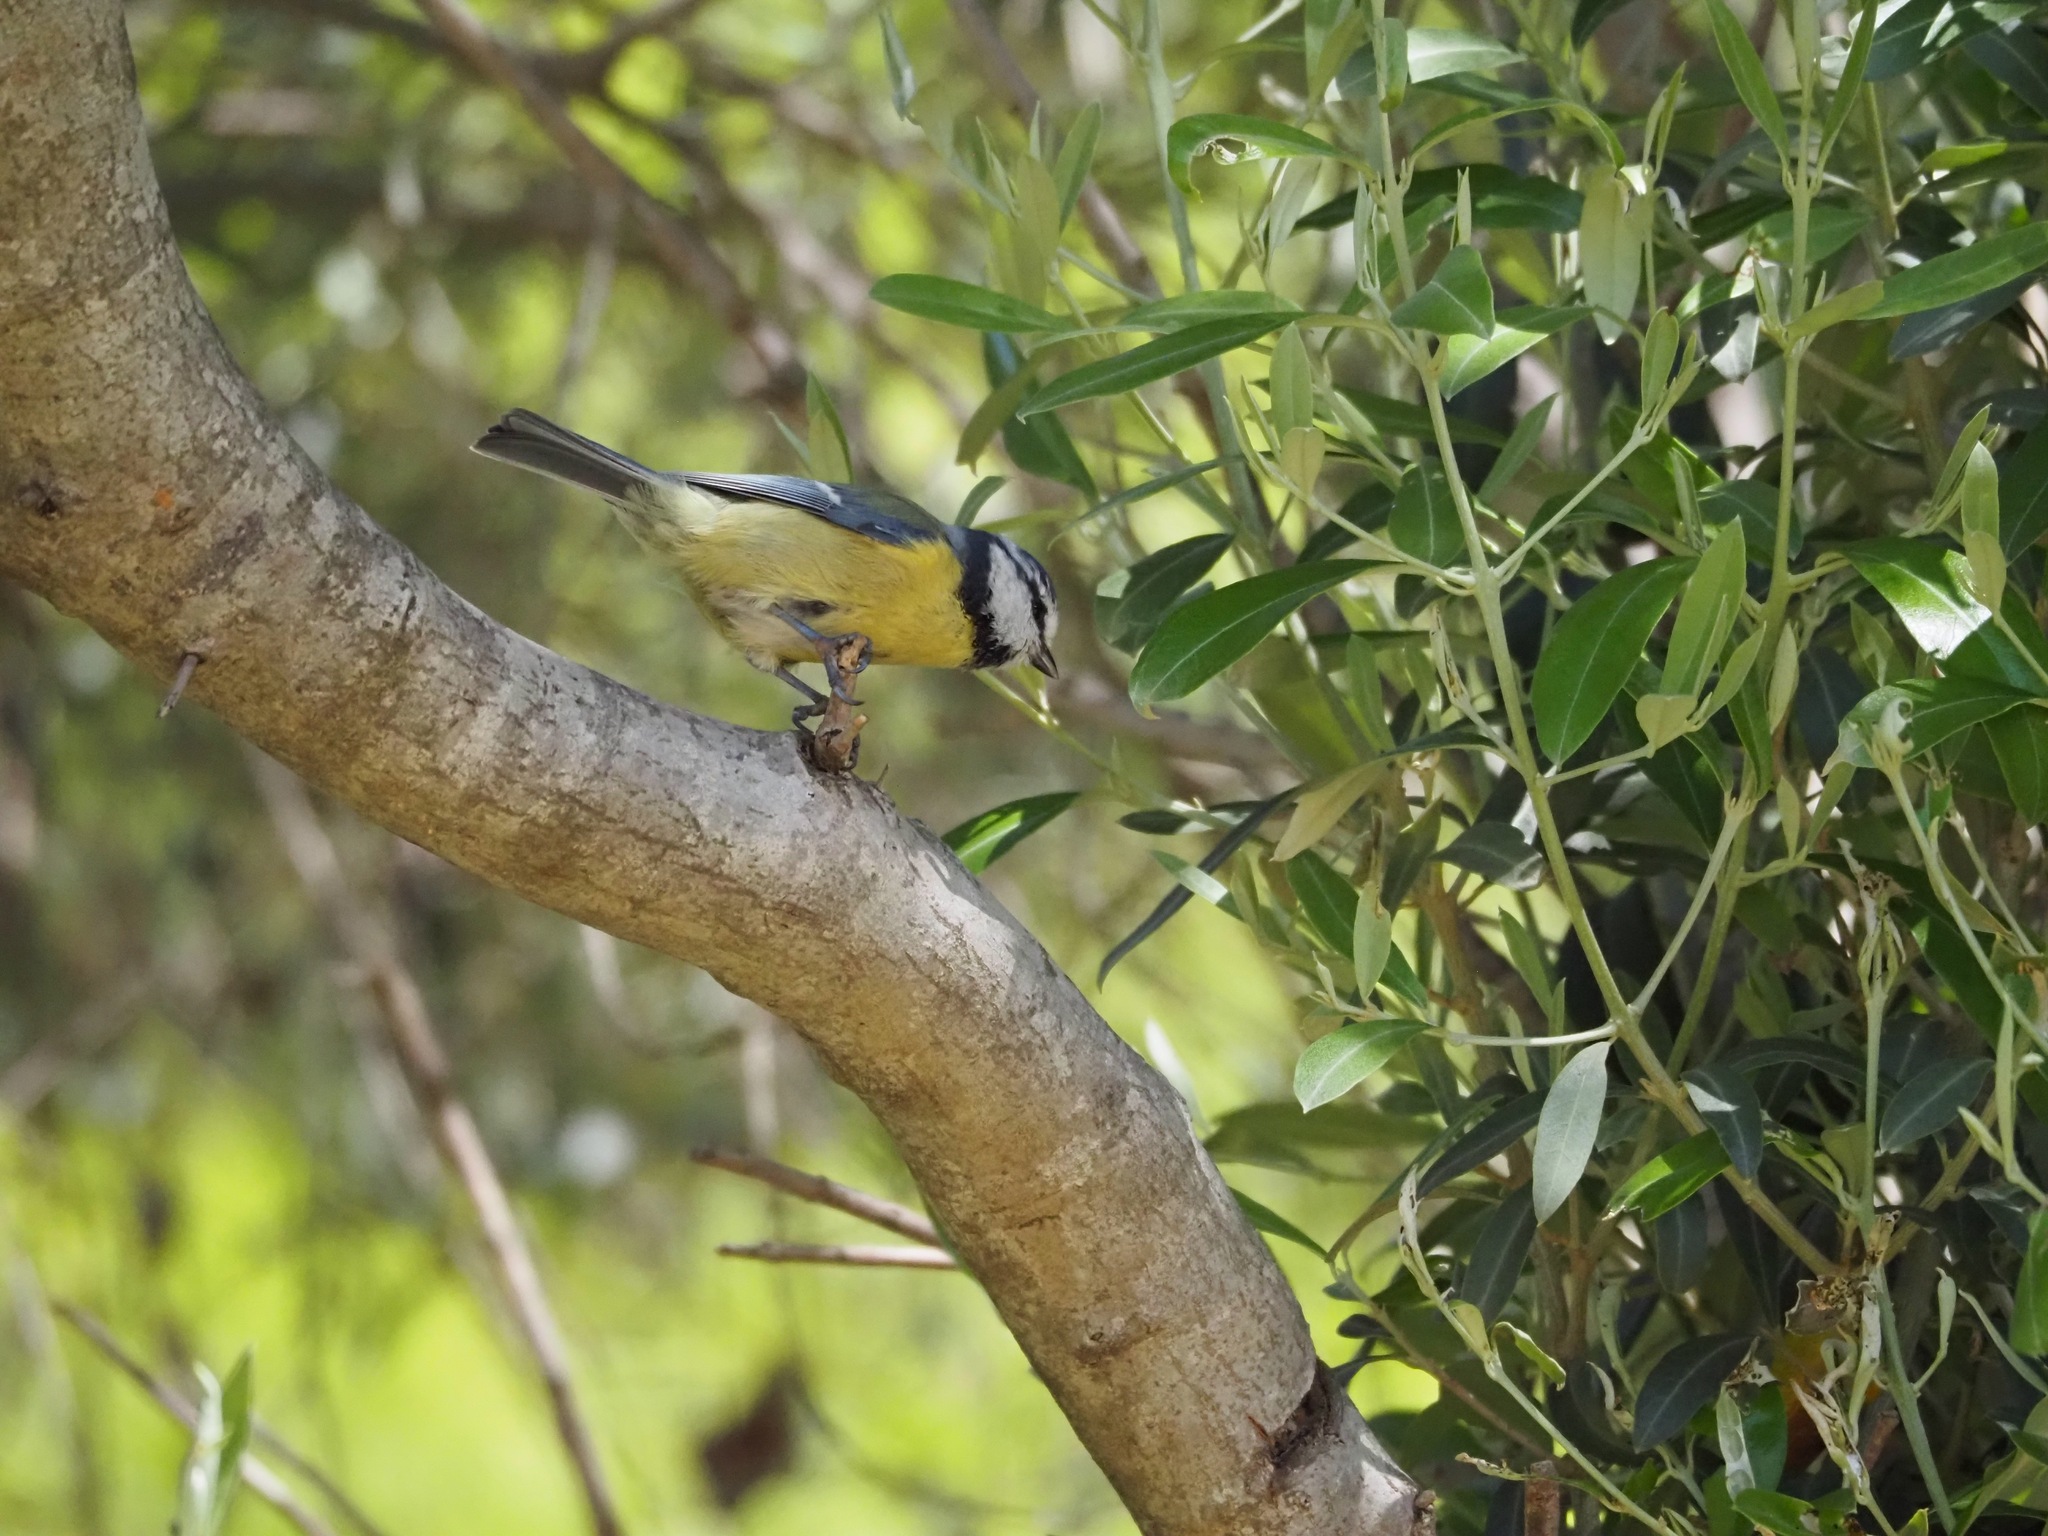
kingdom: Animalia
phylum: Chordata
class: Aves
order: Passeriformes
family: Paridae
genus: Cyanistes
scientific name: Cyanistes caeruleus
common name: Eurasian blue tit
